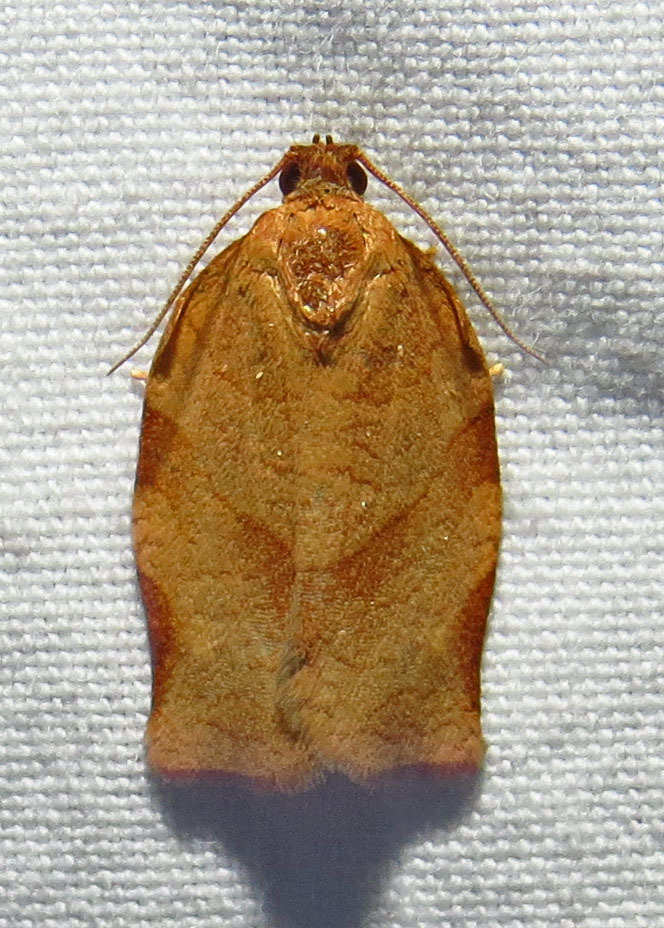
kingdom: Animalia
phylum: Arthropoda
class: Insecta
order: Lepidoptera
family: Tortricidae
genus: Choristoneura
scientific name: Choristoneura rosaceana
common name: Oblique-banded leafroller moth
